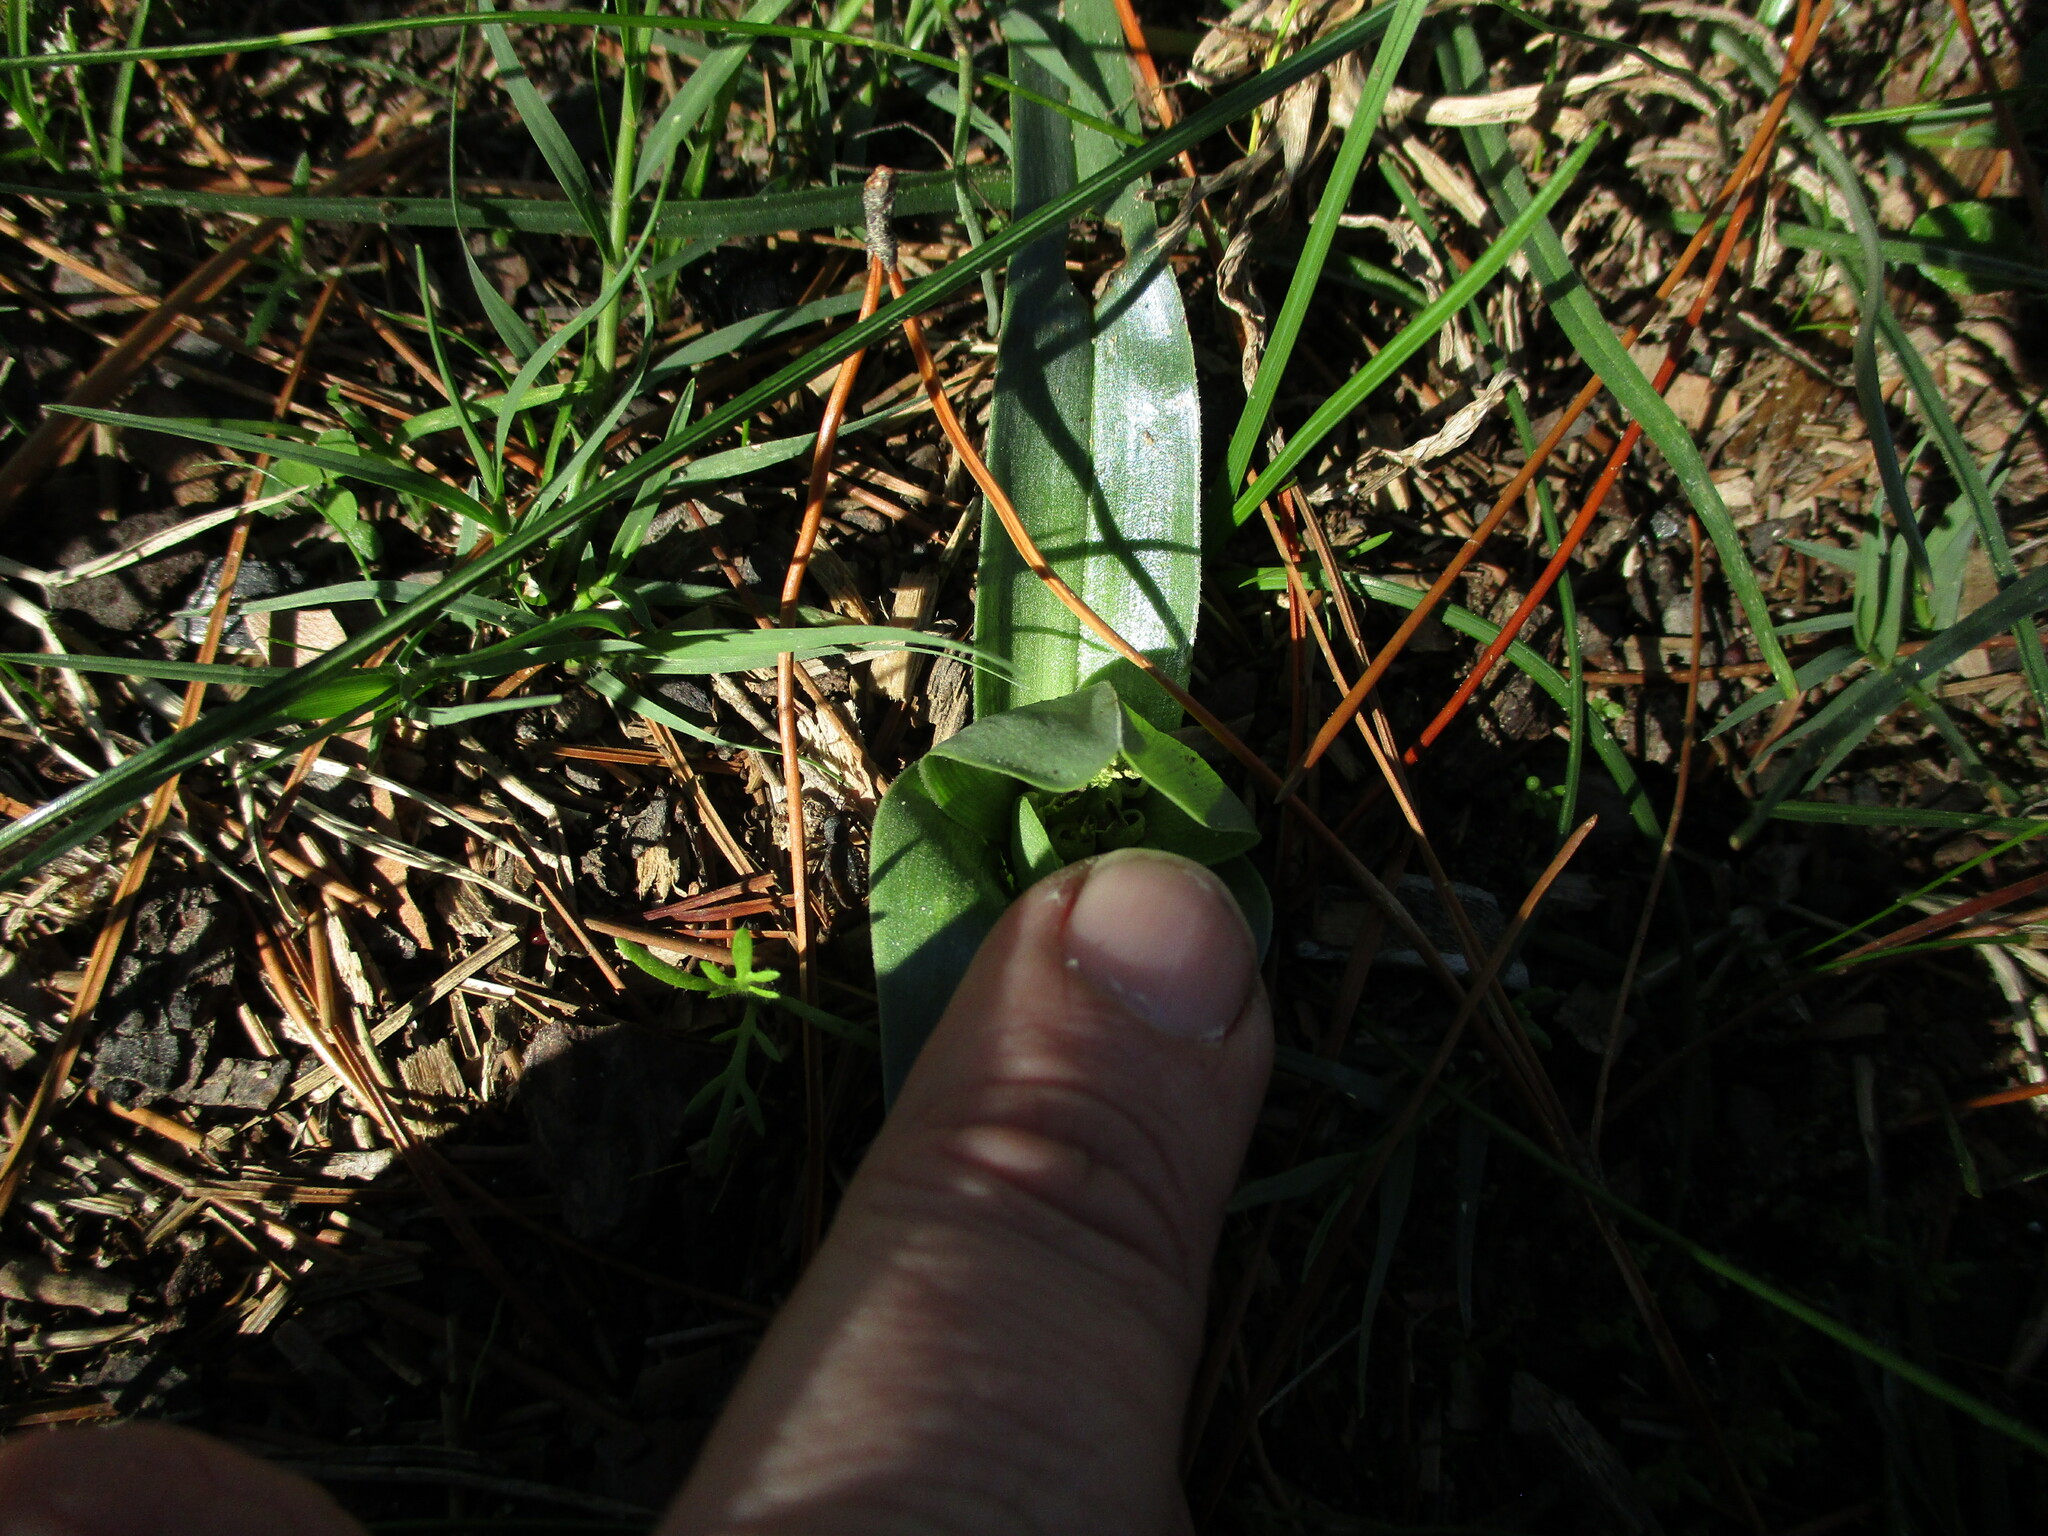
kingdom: Plantae
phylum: Tracheophyta
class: Liliopsida
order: Liliales
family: Colchicaceae
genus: Colchicum
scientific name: Colchicum eucomoides
